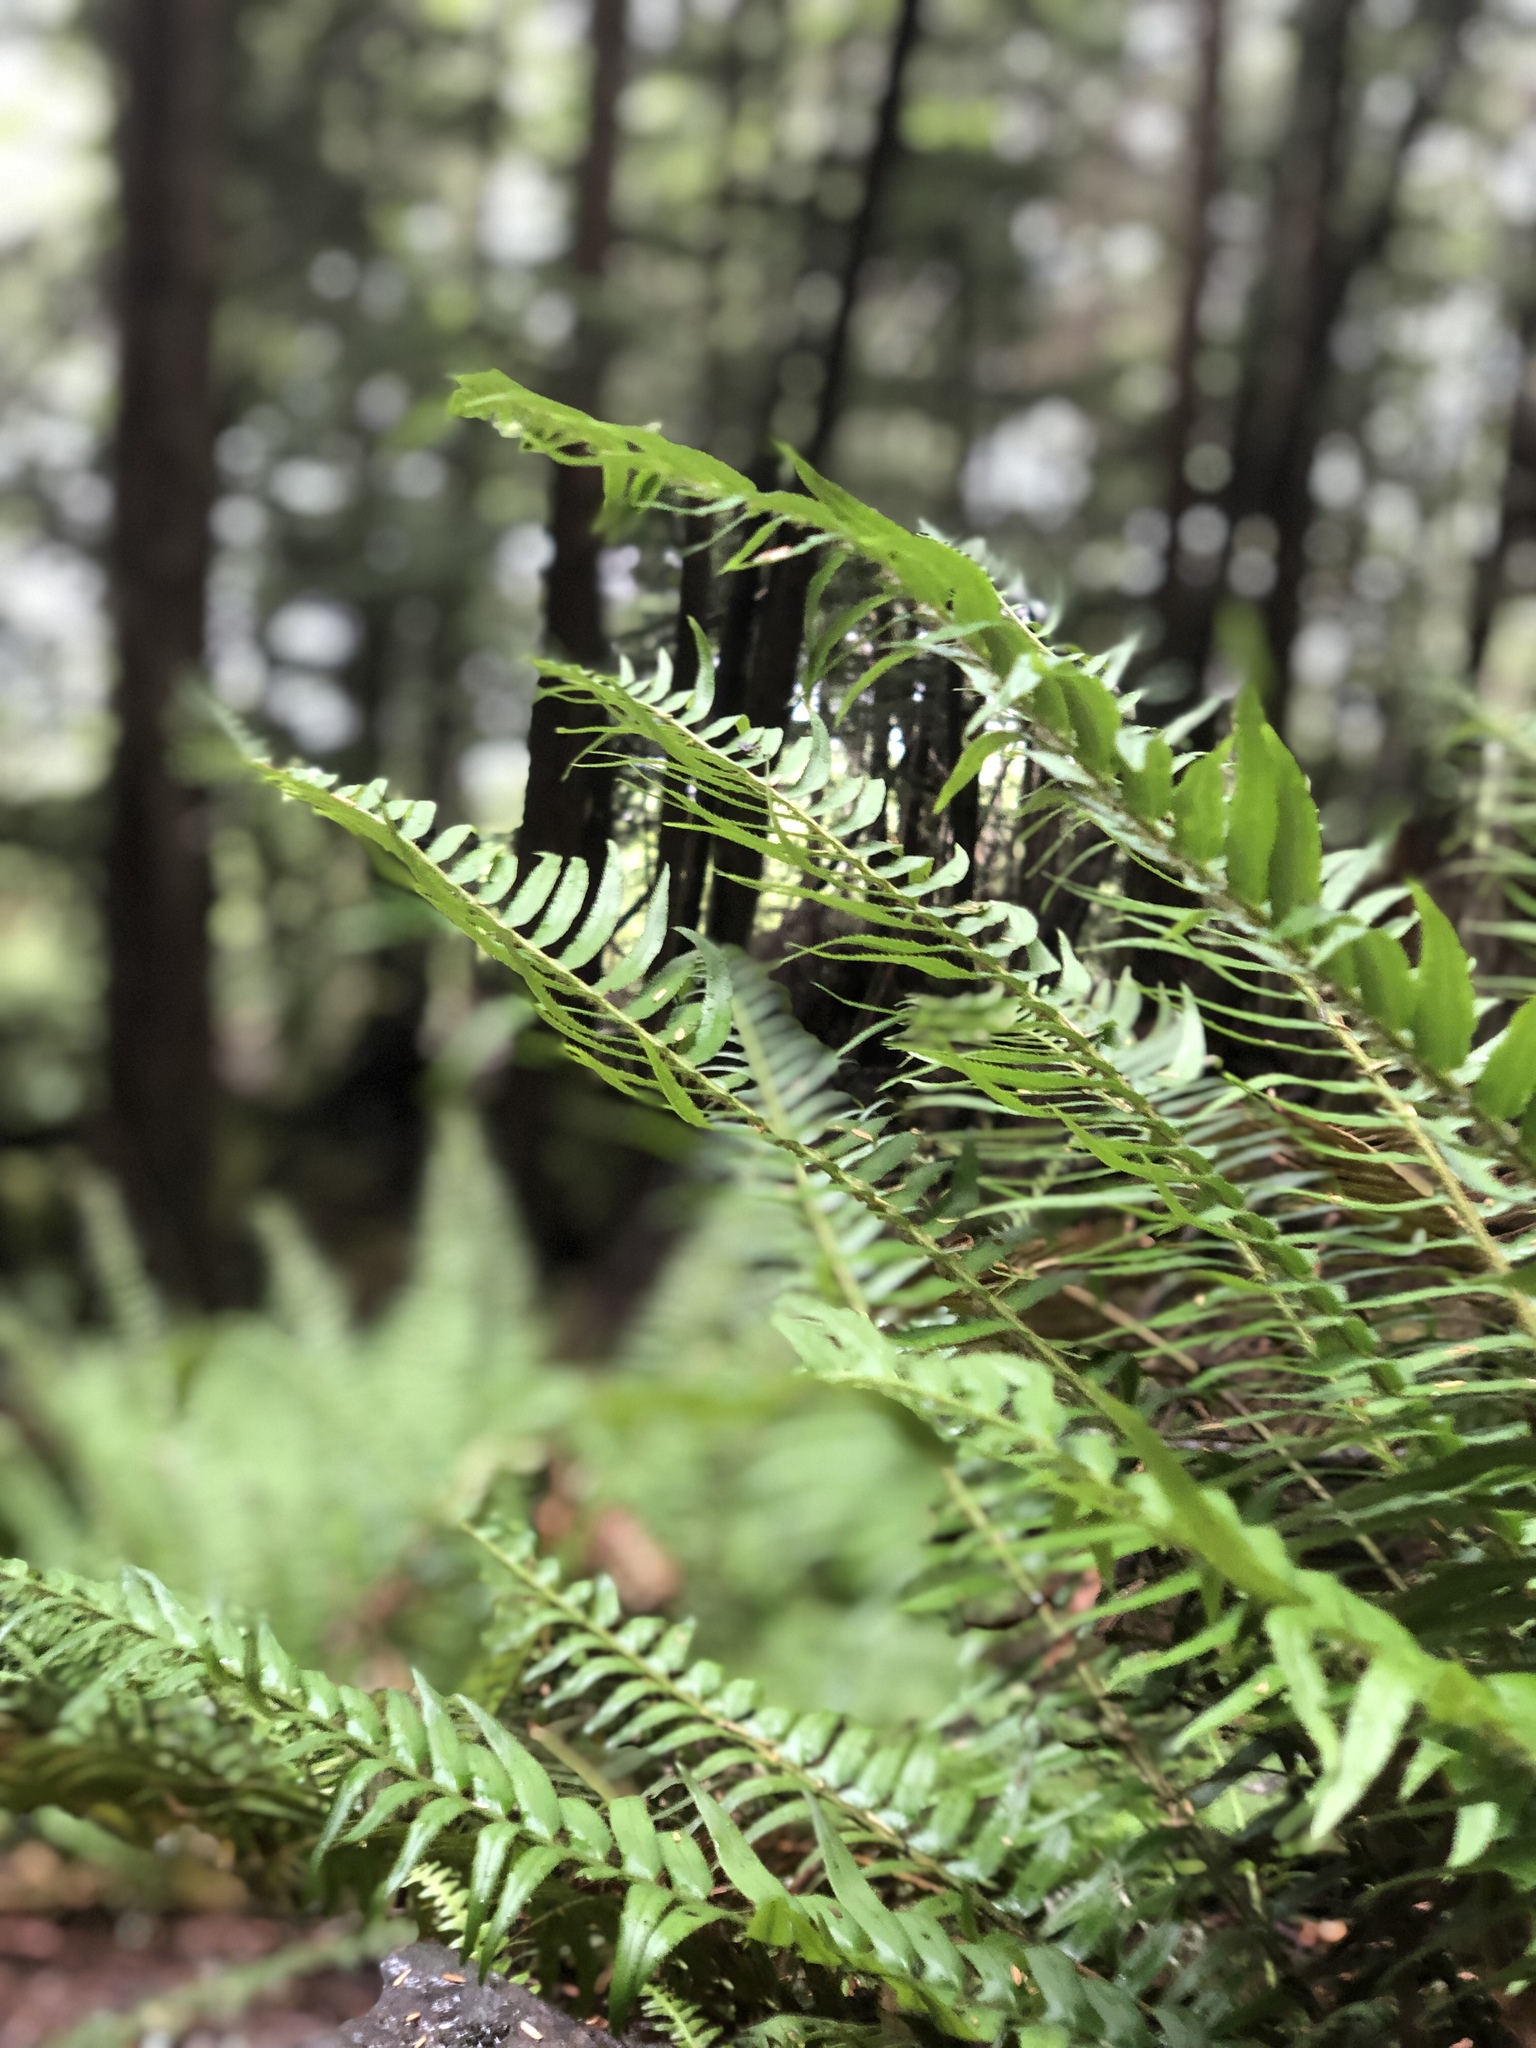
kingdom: Plantae
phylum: Tracheophyta
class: Polypodiopsida
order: Polypodiales
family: Dryopteridaceae
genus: Polystichum
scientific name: Polystichum munitum
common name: Western sword-fern
